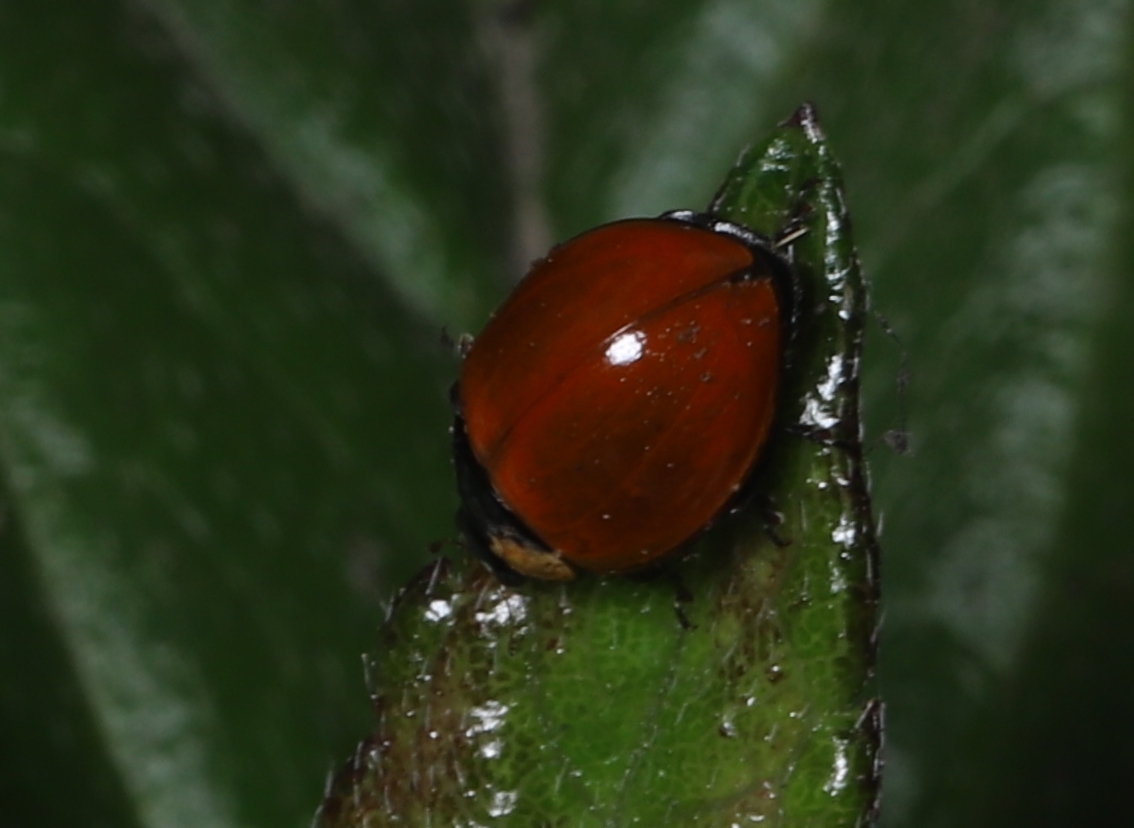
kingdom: Animalia
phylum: Arthropoda
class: Insecta
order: Coleoptera
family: Coccinellidae
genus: Cycloneda
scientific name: Cycloneda sanguinea
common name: Ladybird beetle
